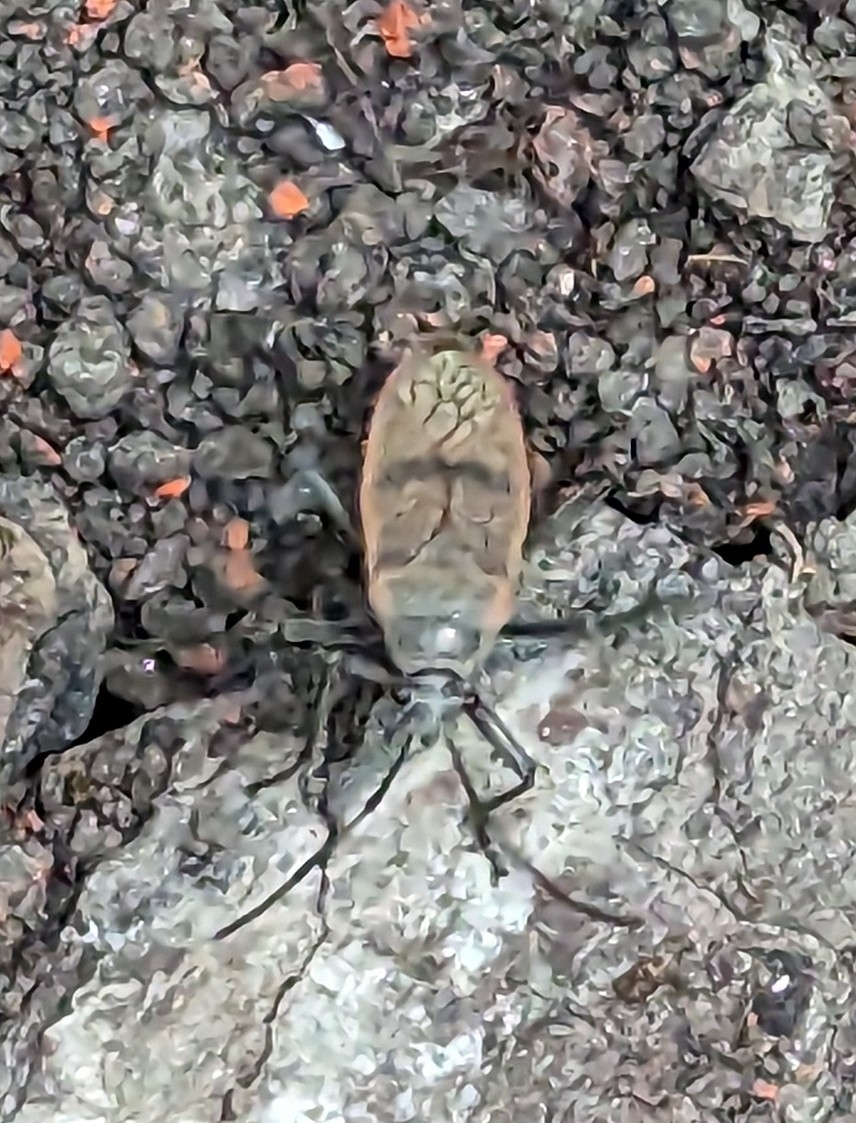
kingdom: Animalia
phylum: Arthropoda
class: Insecta
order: Hemiptera
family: Largidae
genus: Largus
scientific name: Largus maculatus
